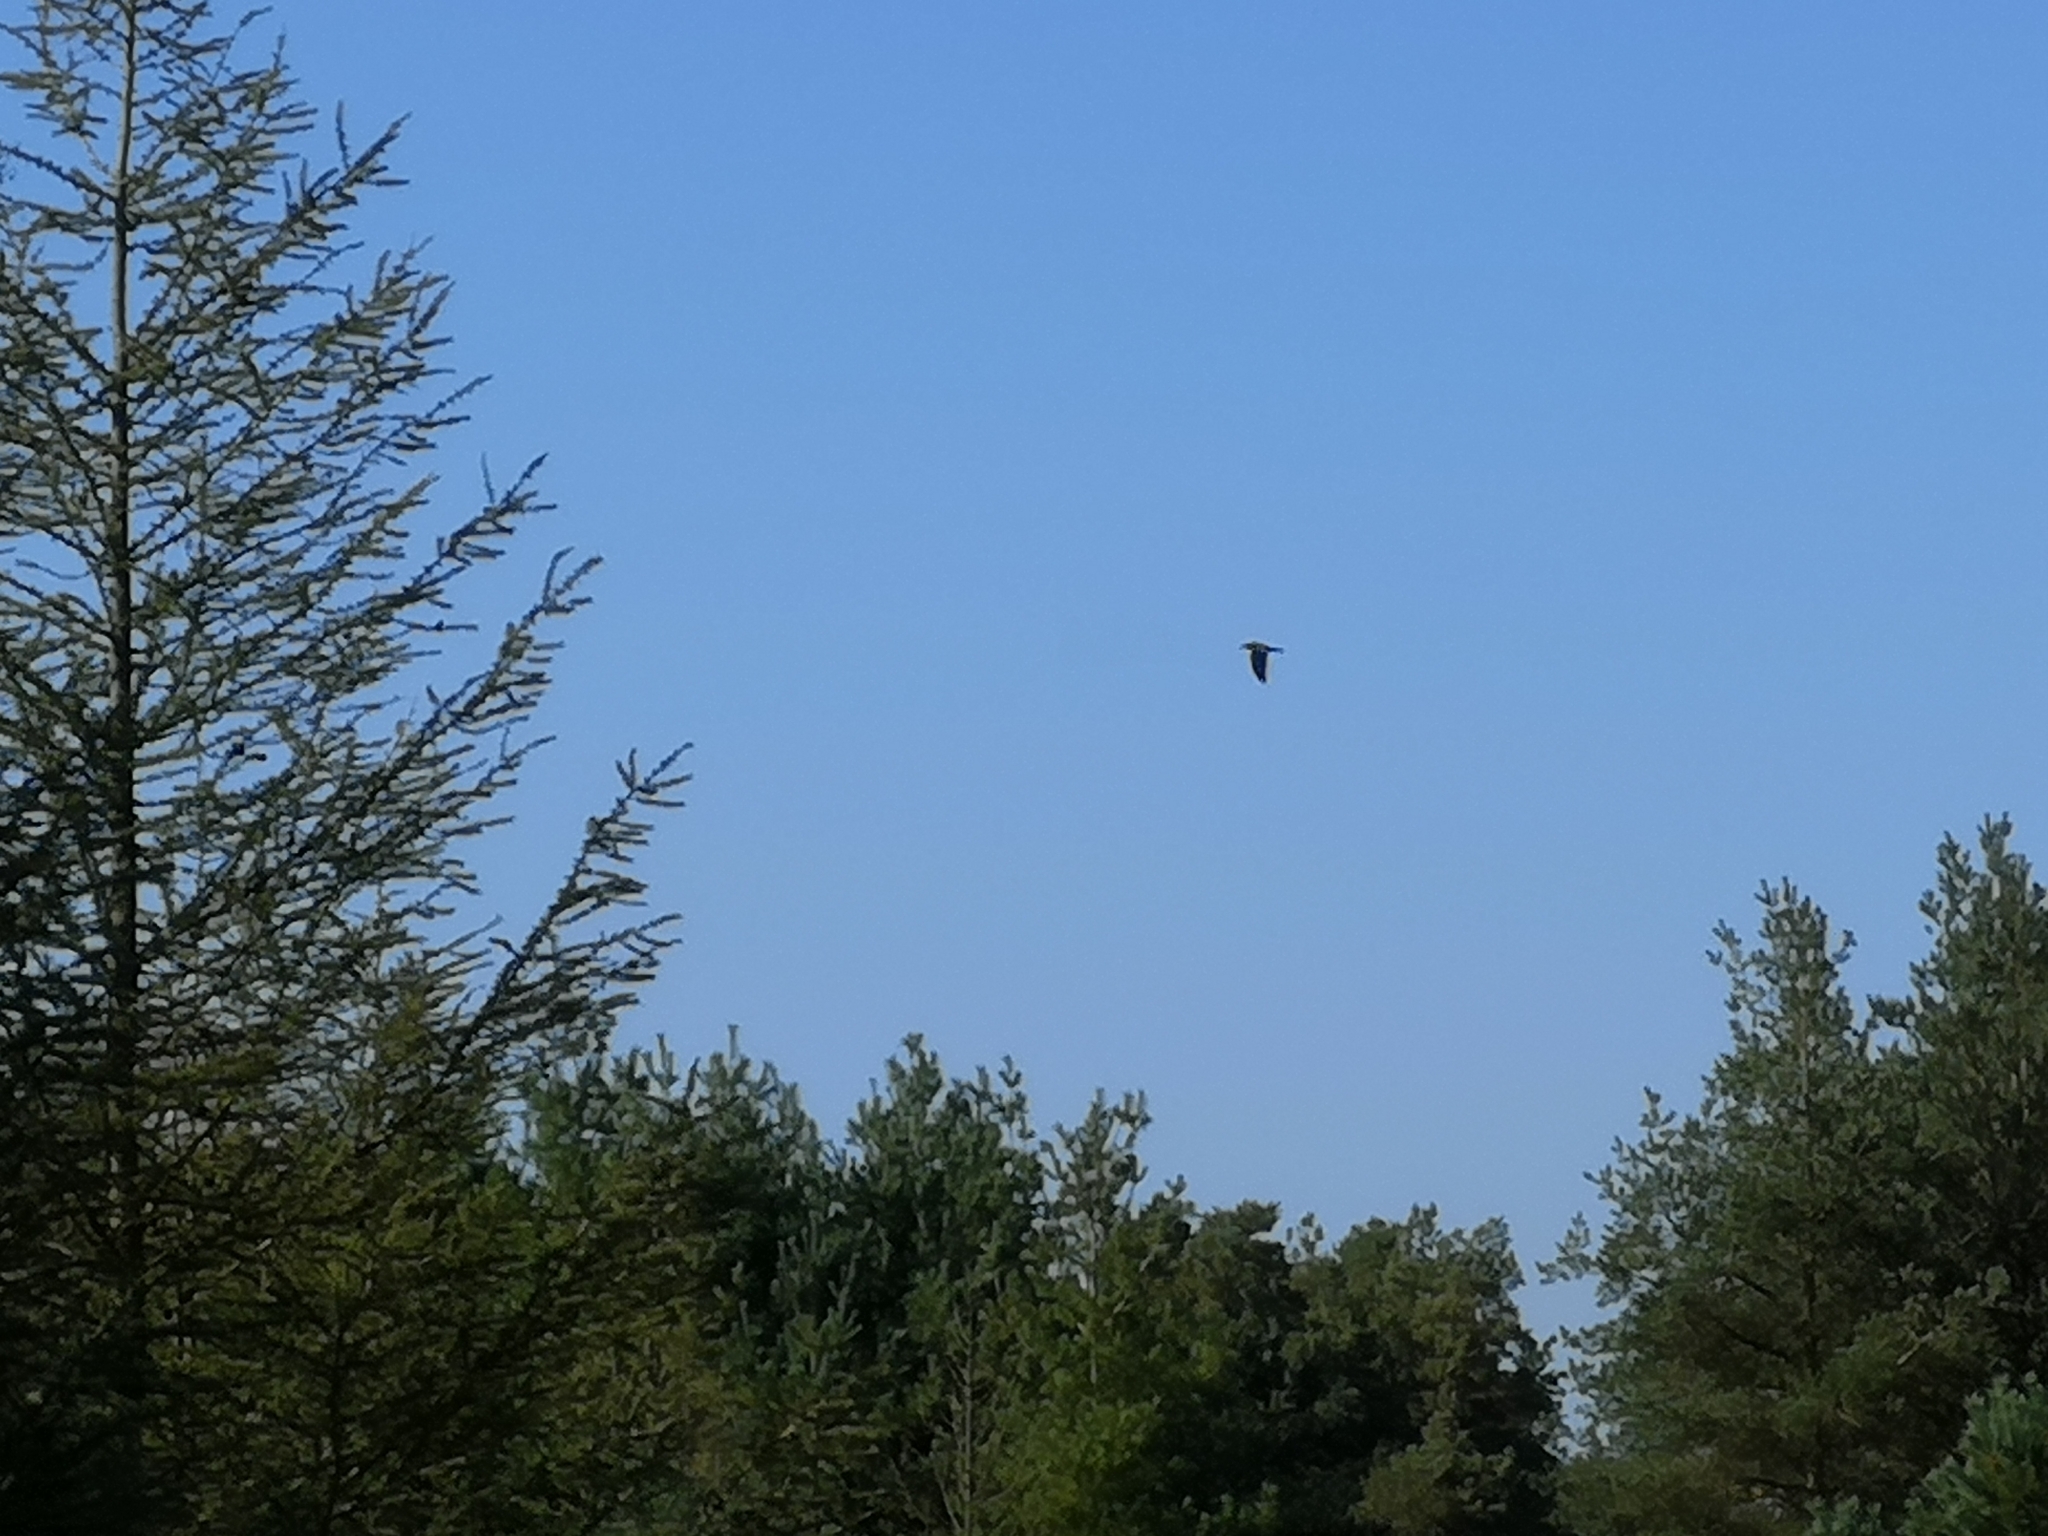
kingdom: Animalia
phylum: Chordata
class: Aves
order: Passeriformes
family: Corvidae
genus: Corvus
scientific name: Corvus corax
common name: Common raven
